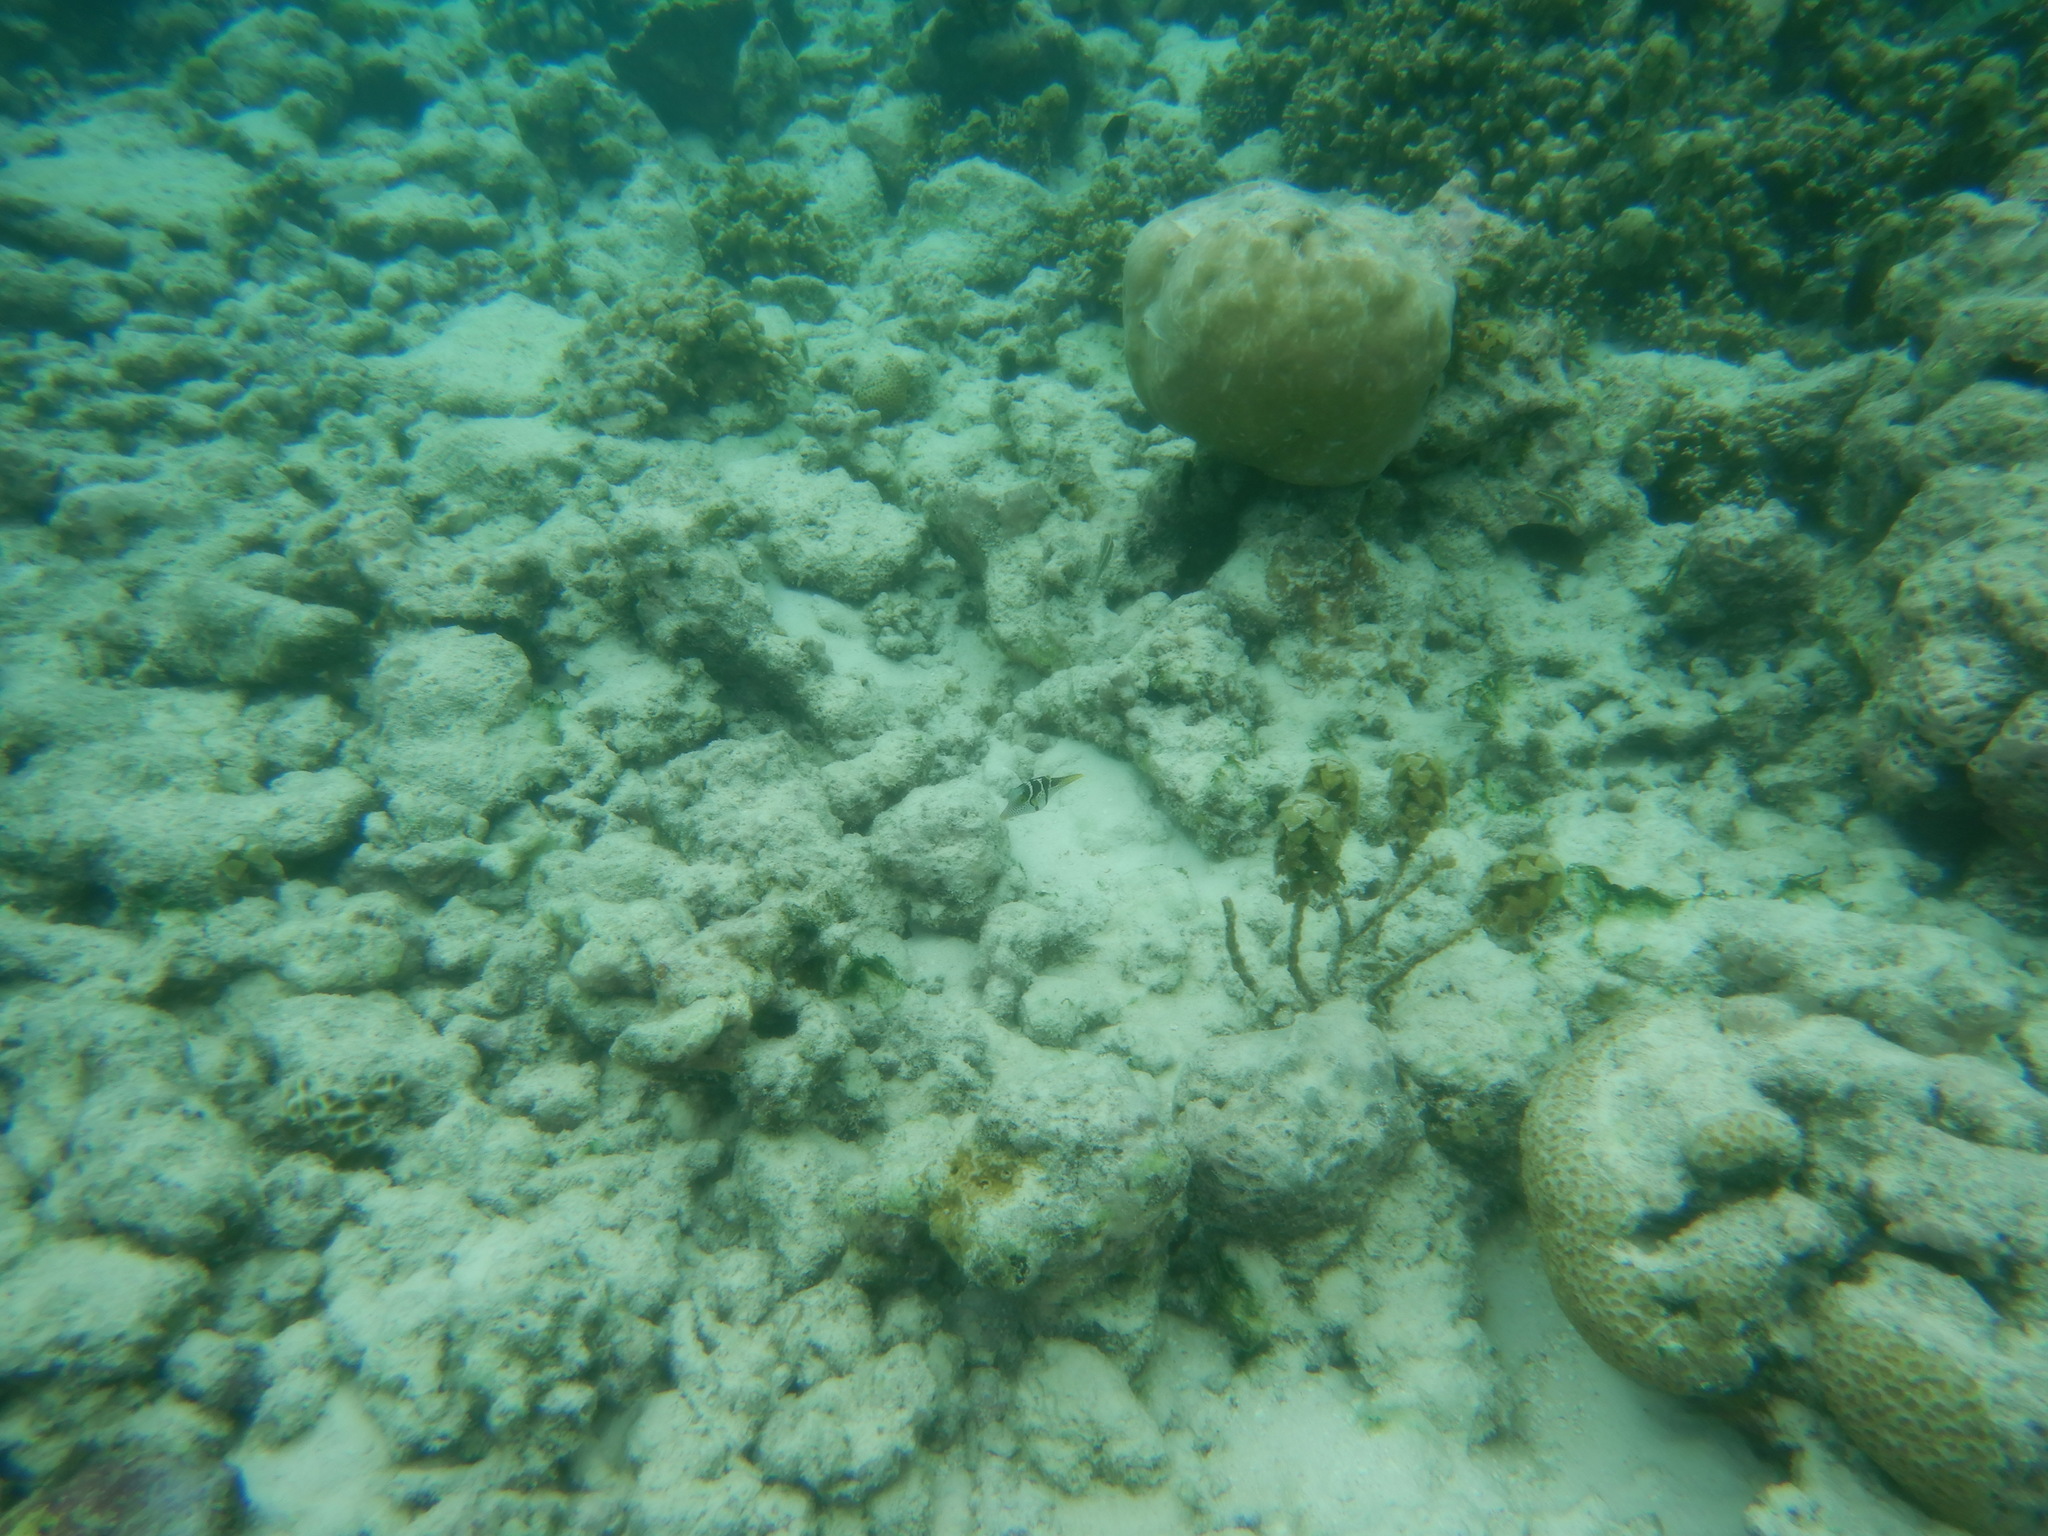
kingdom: Animalia
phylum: Chordata
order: Tetraodontiformes
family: Tetraodontidae
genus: Canthigaster
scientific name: Canthigaster valentini
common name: Banded toby
